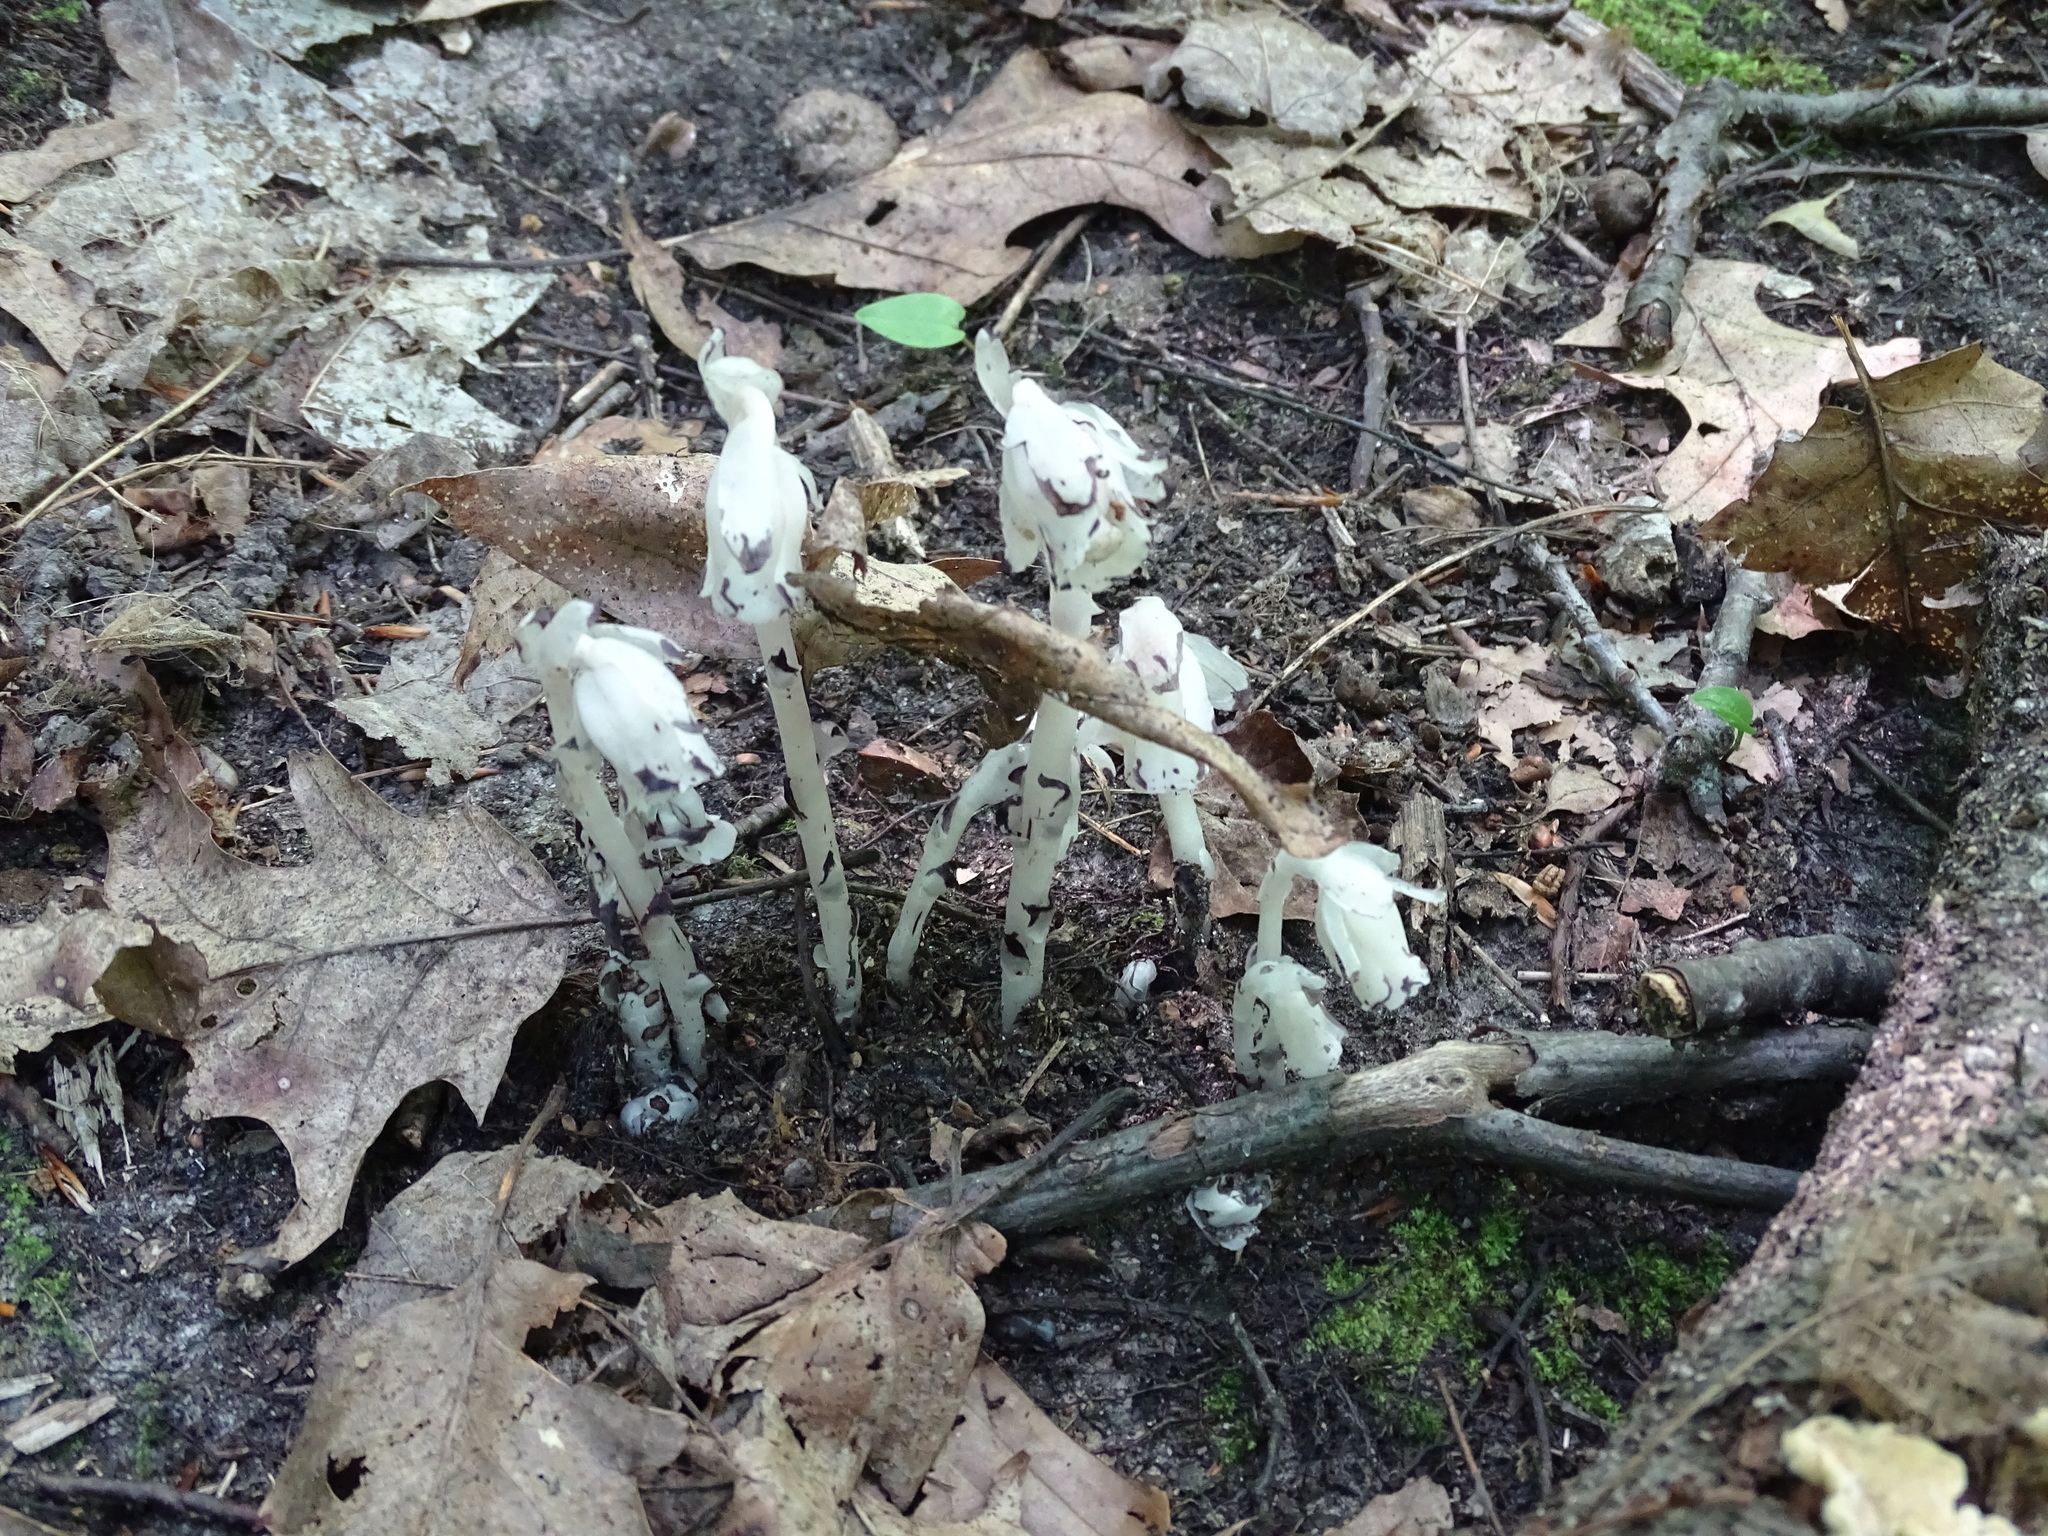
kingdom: Plantae
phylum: Tracheophyta
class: Magnoliopsida
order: Ericales
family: Ericaceae
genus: Monotropa
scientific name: Monotropa uniflora
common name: Convulsion root
